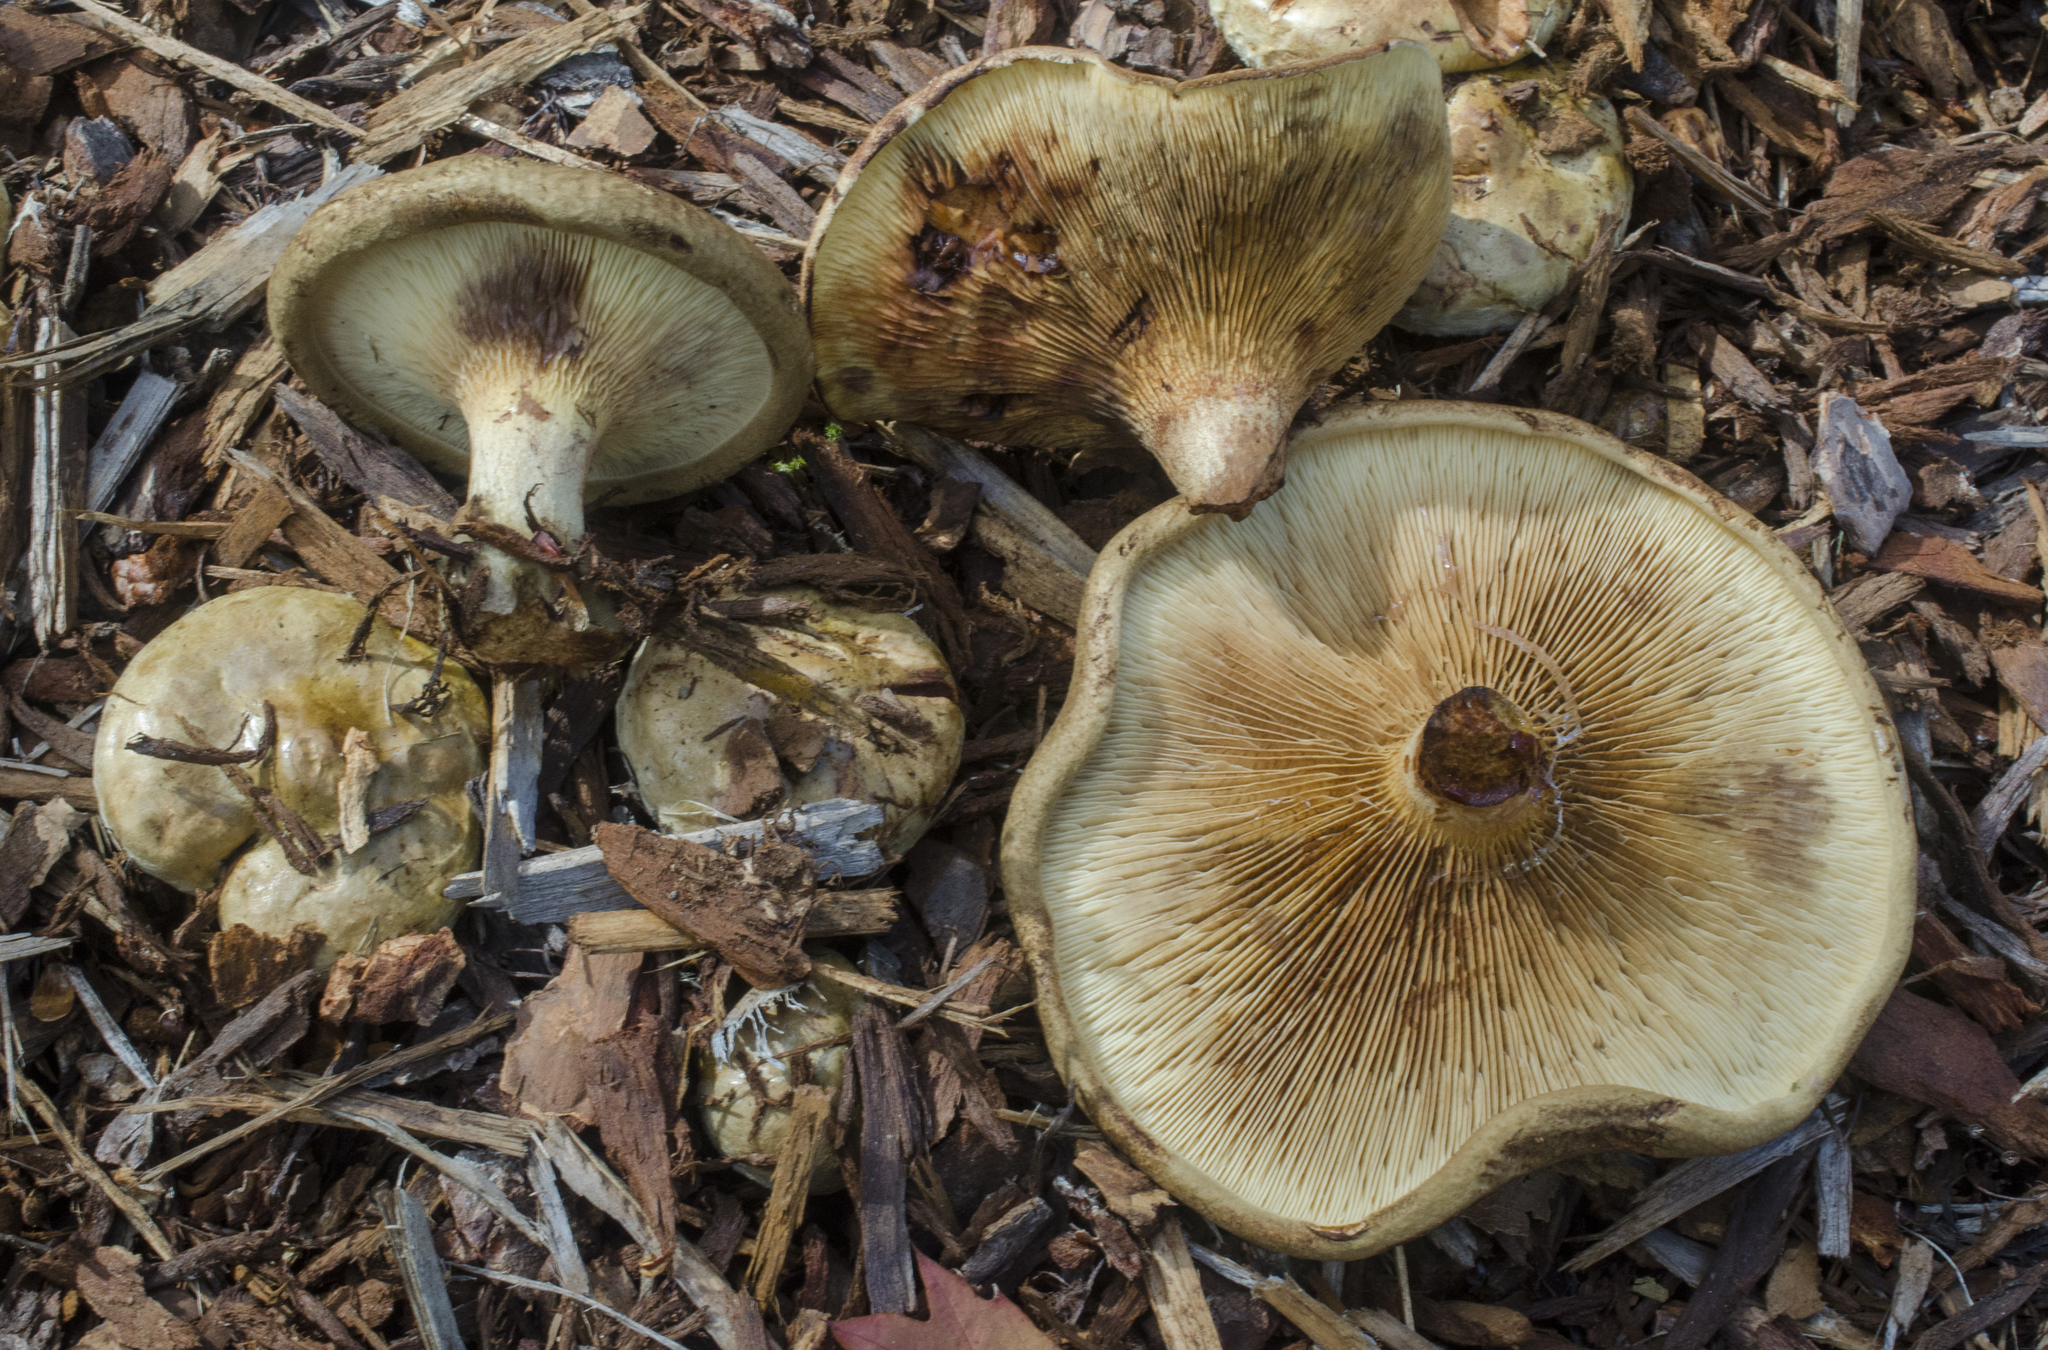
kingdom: Fungi
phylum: Basidiomycota
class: Agaricomycetes
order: Boletales
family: Paxillaceae
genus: Paxillus
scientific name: Paxillus cuprinus
